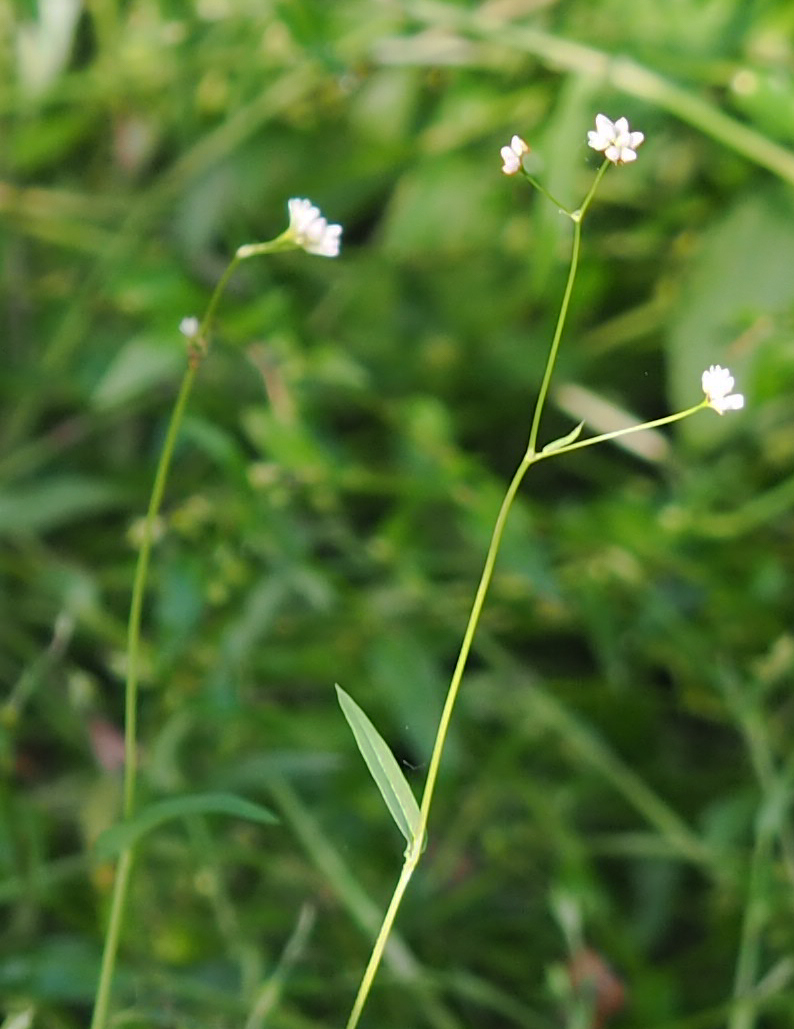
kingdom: Plantae
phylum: Tracheophyta
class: Magnoliopsida
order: Caryophyllales
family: Polygonaceae
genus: Persicaria
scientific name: Persicaria sagittata
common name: American tearthumb
